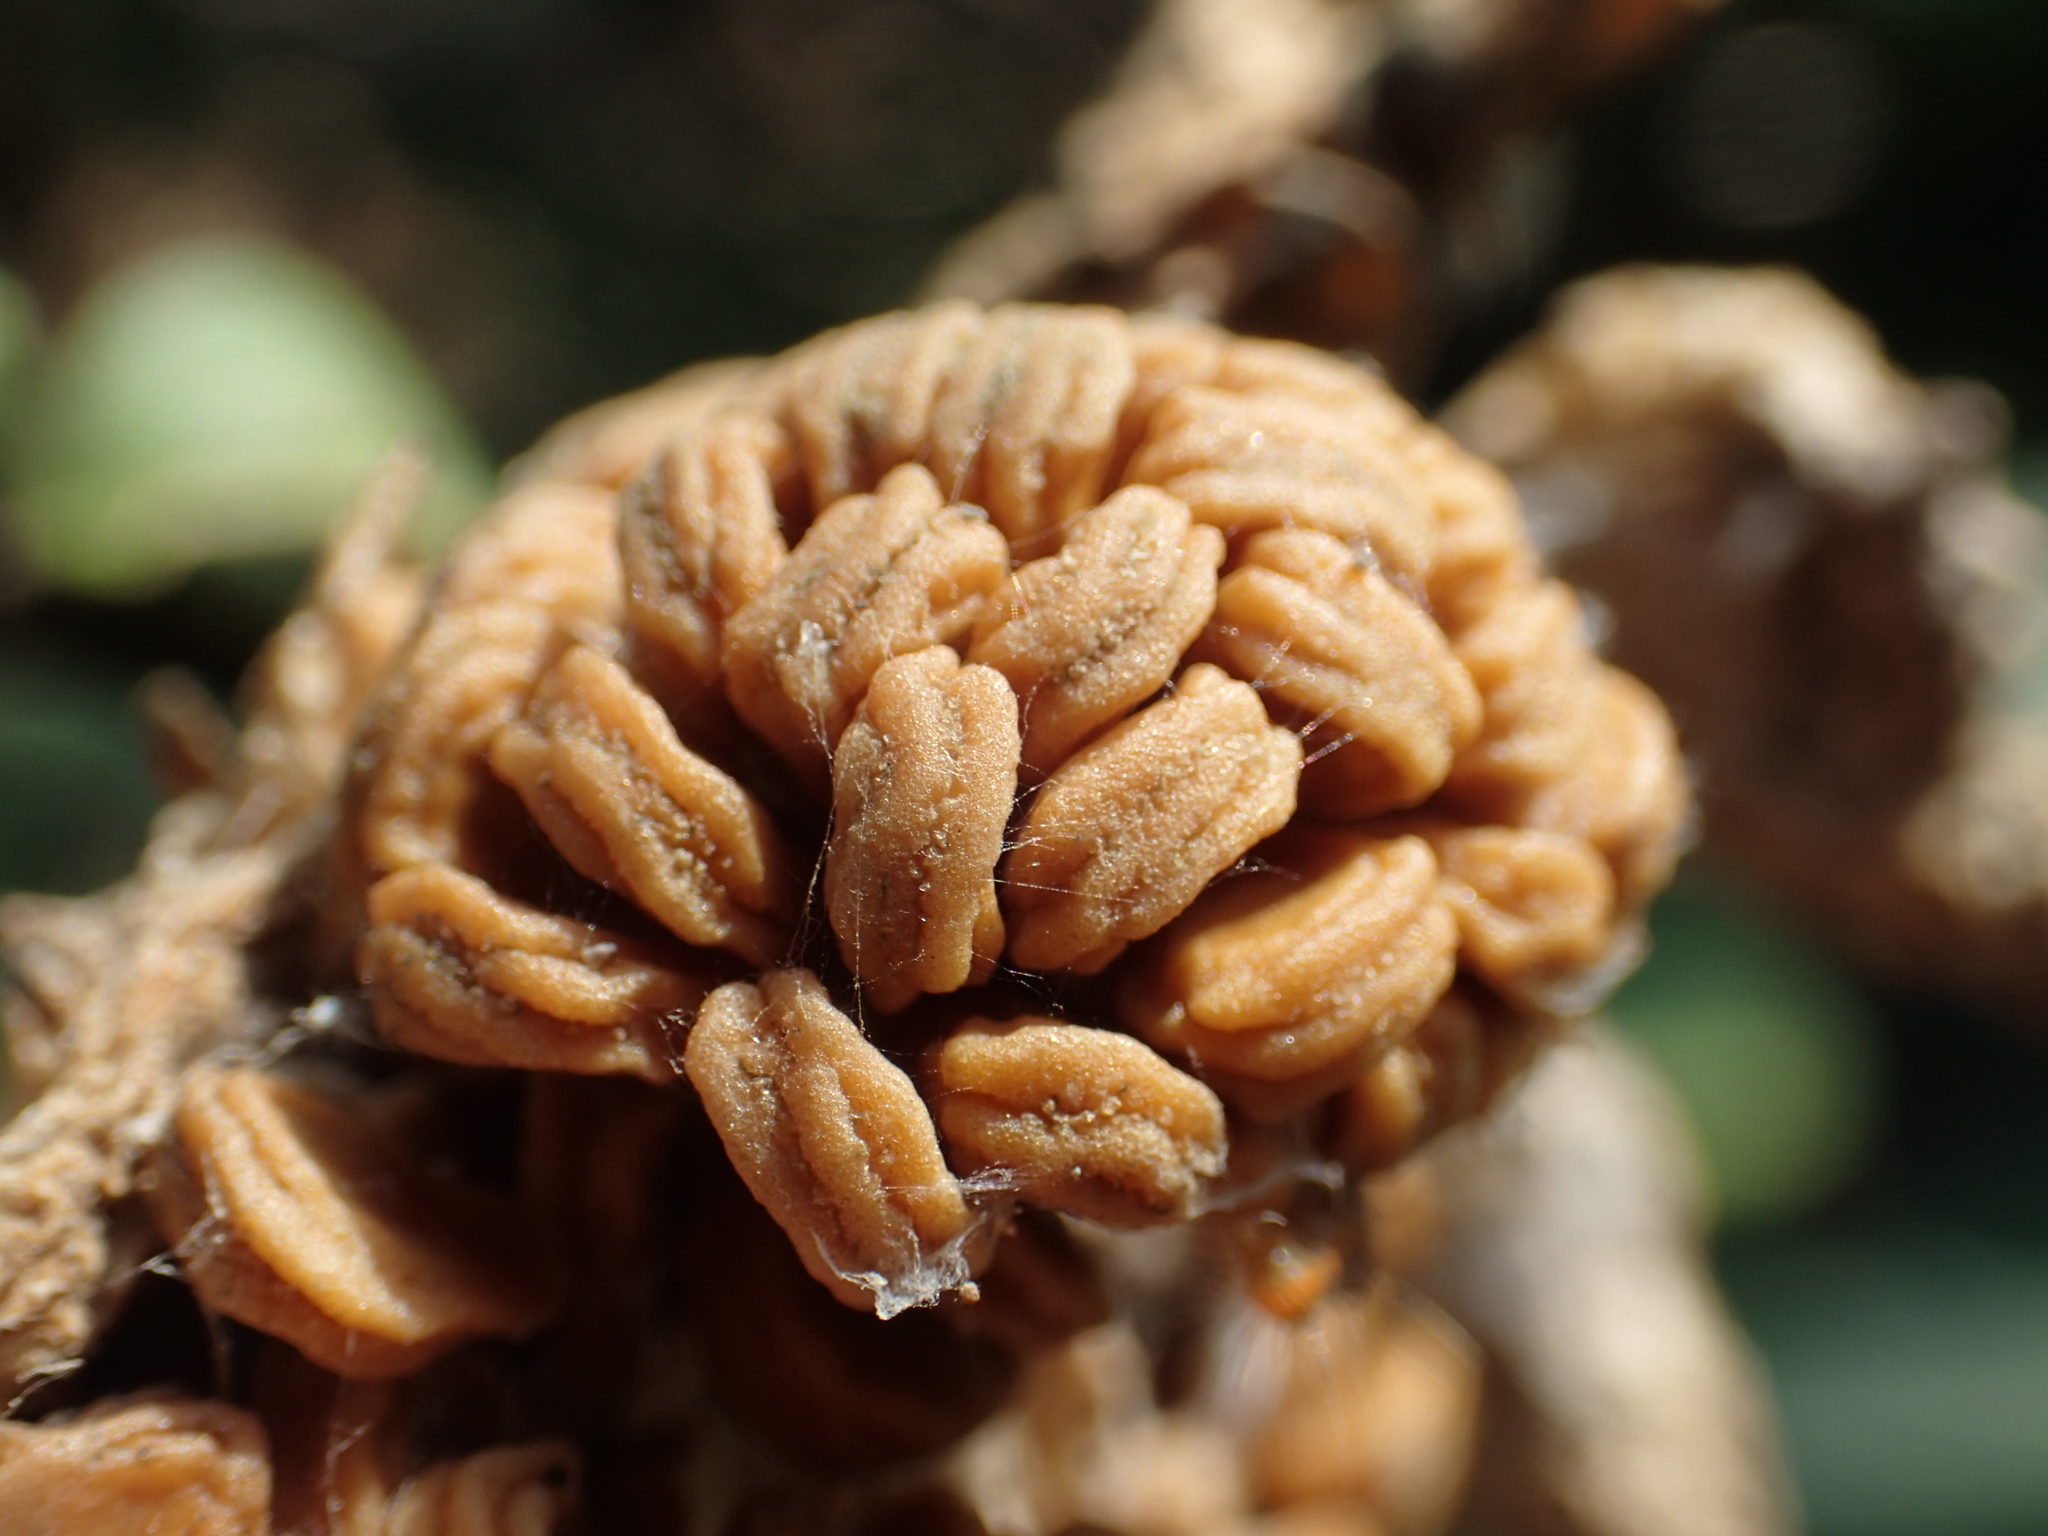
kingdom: Plantae
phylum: Tracheophyta
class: Magnoliopsida
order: Solanales
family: Solanaceae
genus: Datura
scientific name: Datura metel
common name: Jimsonweed
